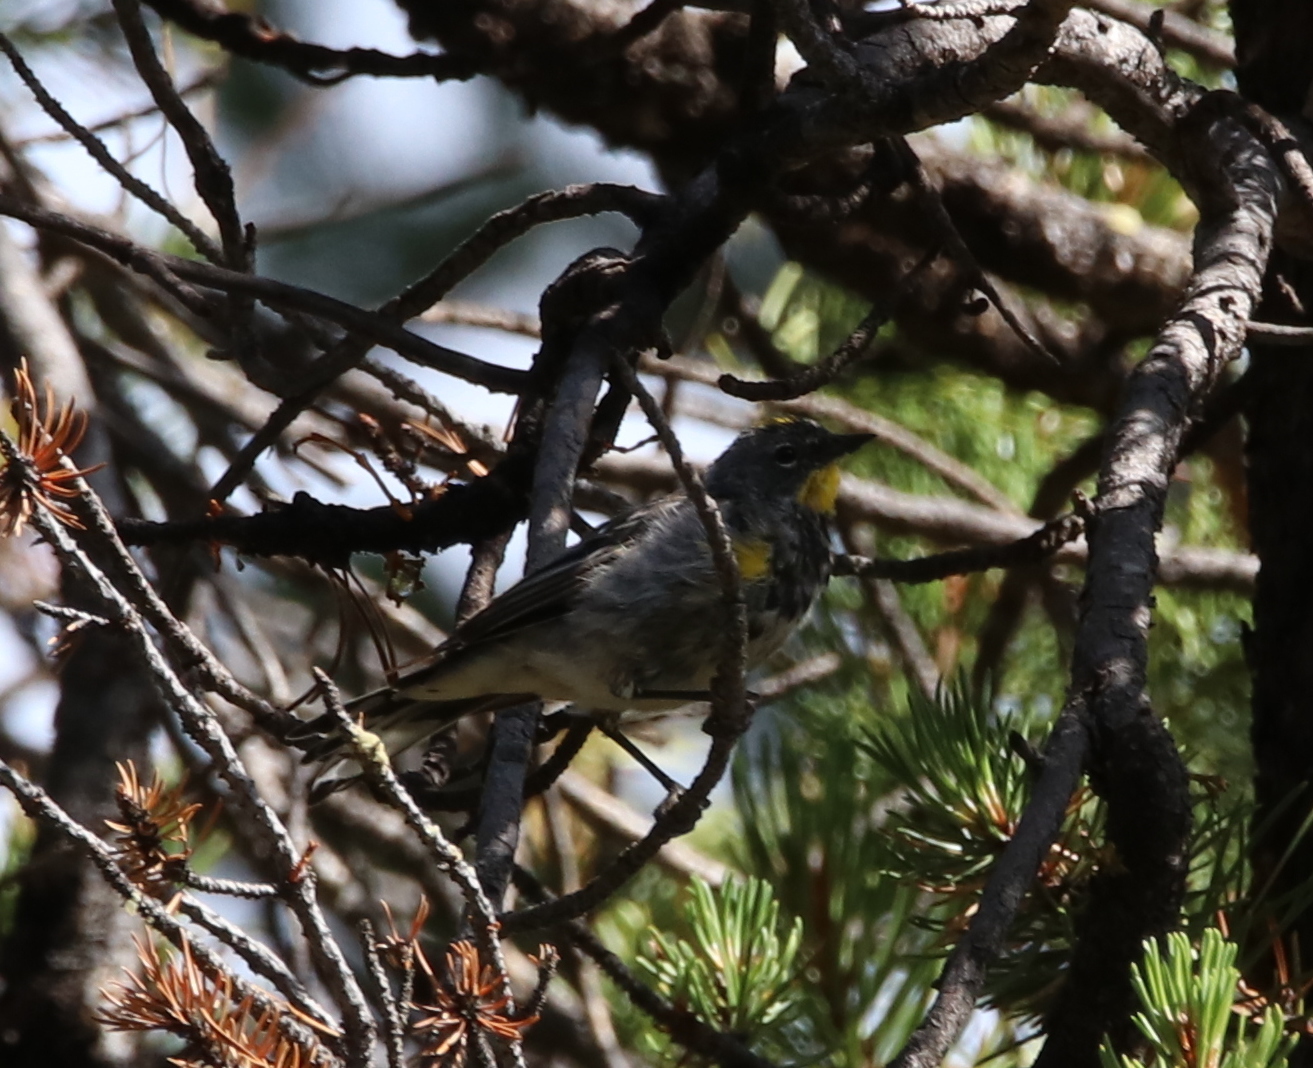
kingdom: Animalia
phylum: Chordata
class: Aves
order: Passeriformes
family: Parulidae
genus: Setophaga
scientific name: Setophaga coronata
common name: Myrtle warbler
